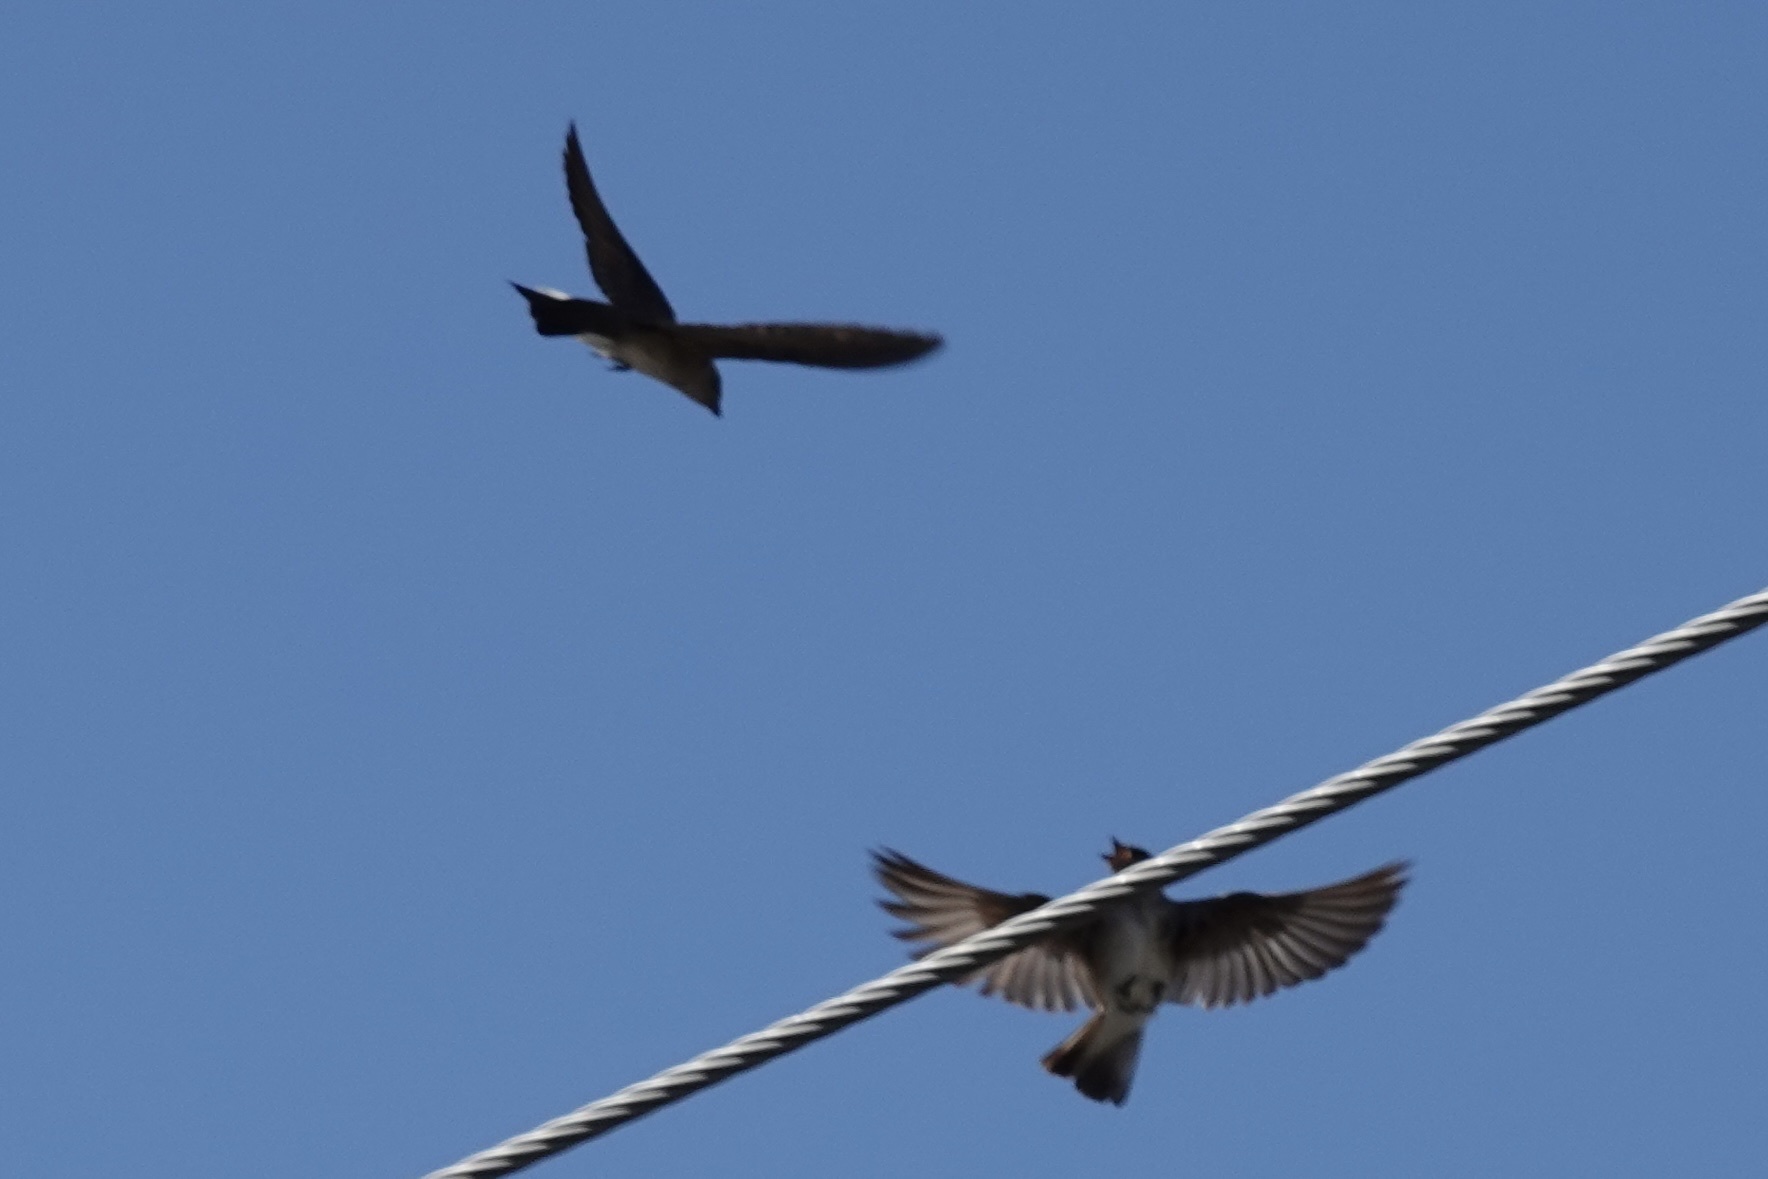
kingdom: Animalia
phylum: Chordata
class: Aves
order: Passeriformes
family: Hirundinidae
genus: Stelgidopteryx
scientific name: Stelgidopteryx serripennis
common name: Northern rough-winged swallow
